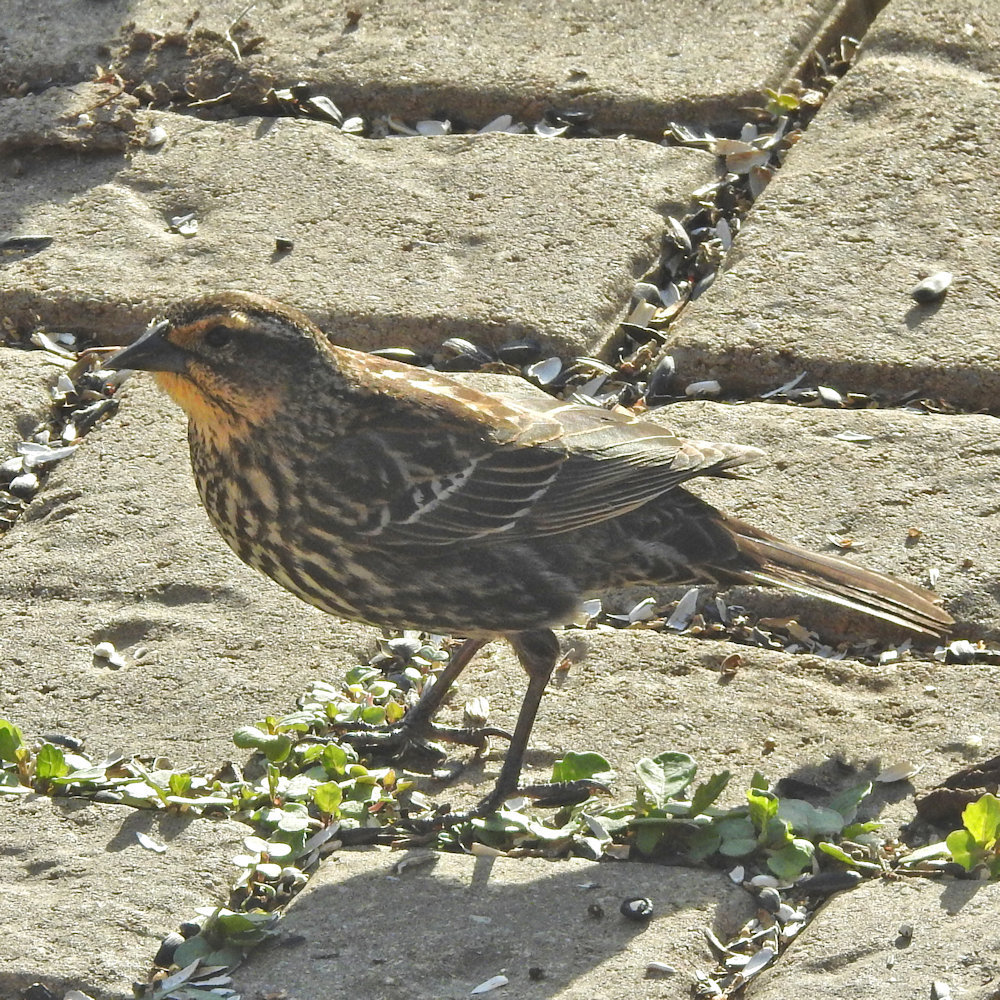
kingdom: Animalia
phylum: Chordata
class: Aves
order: Passeriformes
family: Icteridae
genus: Agelaius
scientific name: Agelaius phoeniceus
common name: Red-winged blackbird
